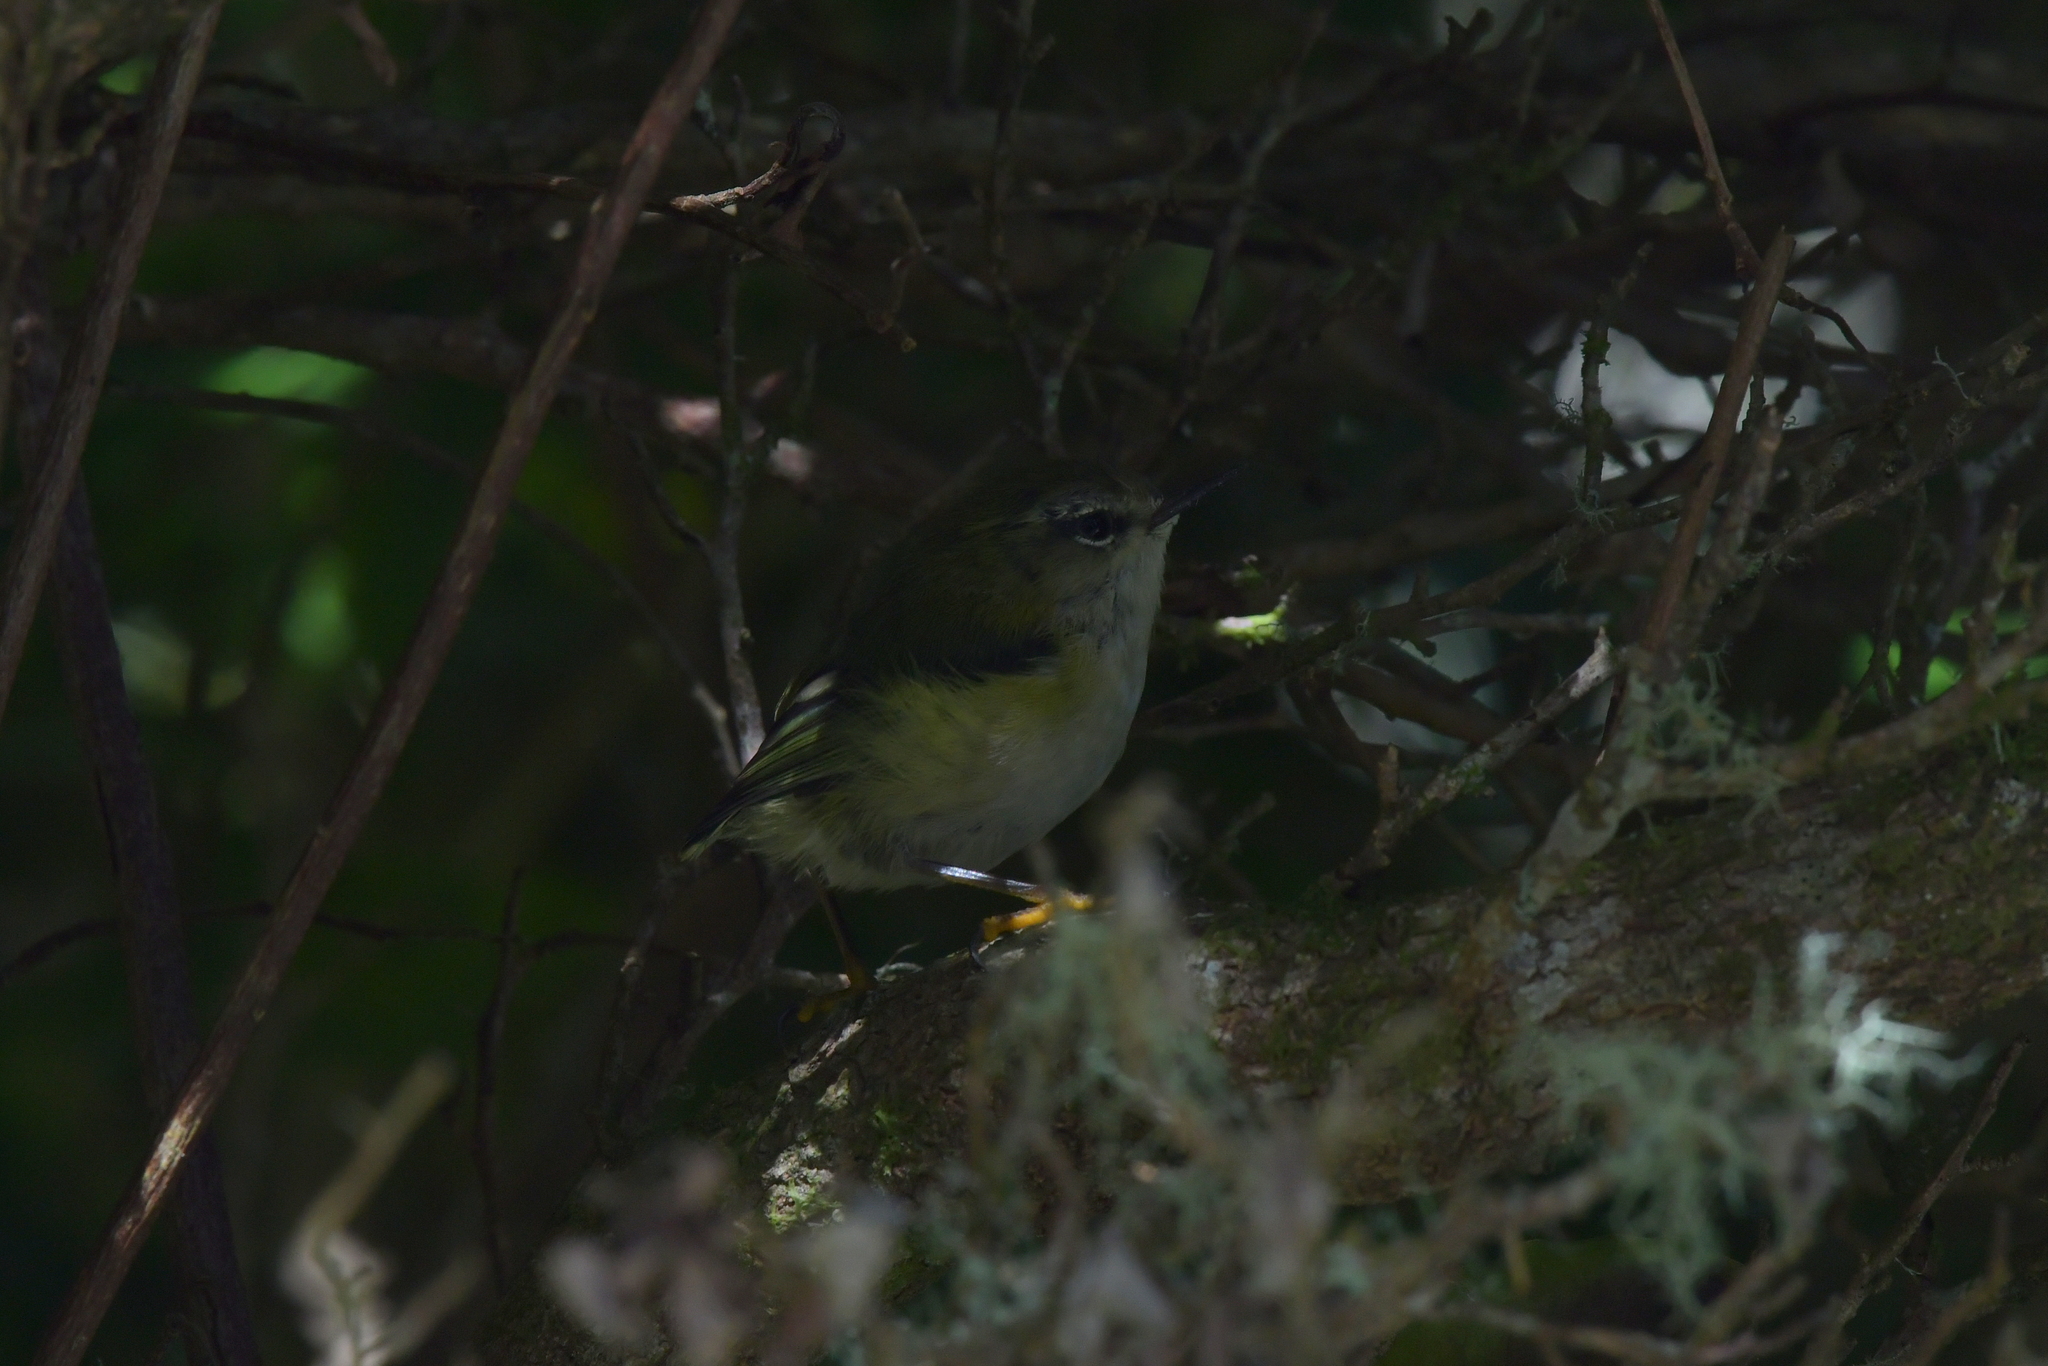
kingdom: Animalia
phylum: Chordata
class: Aves
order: Passeriformes
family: Acanthisittidae
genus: Acanthisitta
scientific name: Acanthisitta chloris
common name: Rifleman
